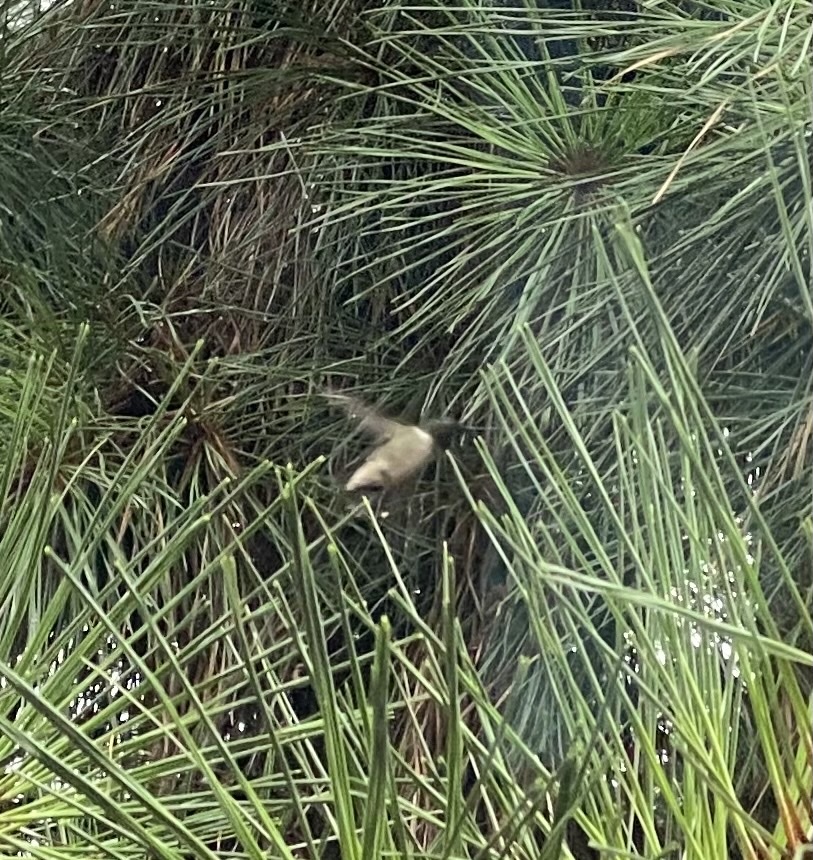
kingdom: Animalia
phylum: Chordata
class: Aves
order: Apodiformes
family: Trochilidae
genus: Archilochus
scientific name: Archilochus colubris
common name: Ruby-throated hummingbird
